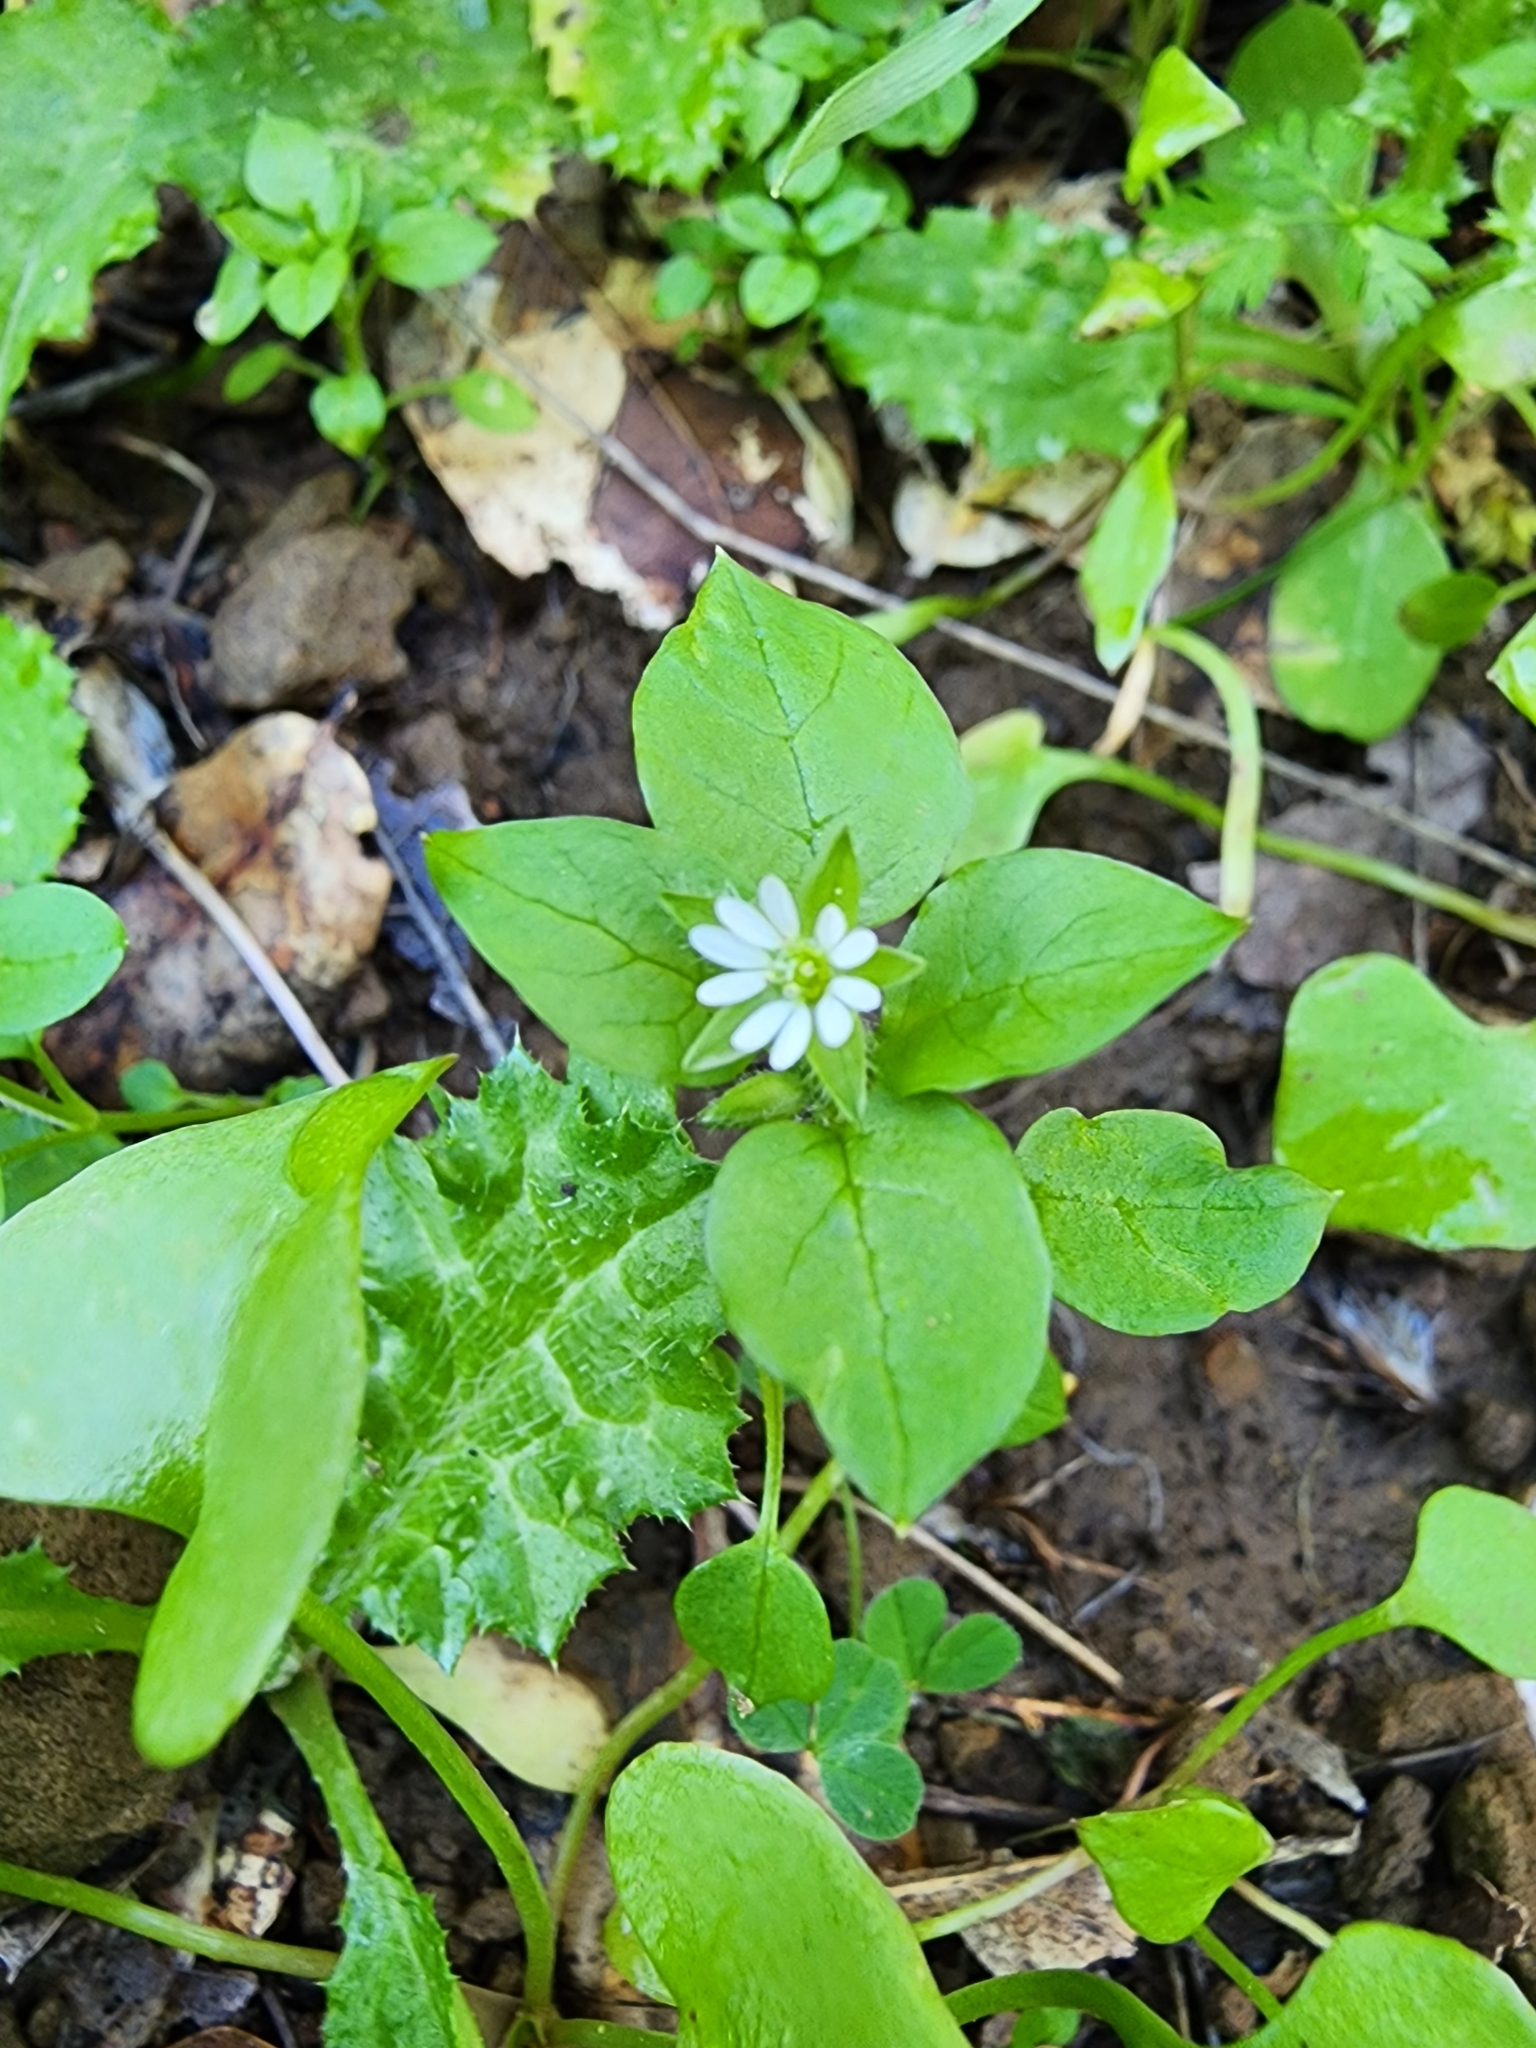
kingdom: Plantae
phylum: Tracheophyta
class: Magnoliopsida
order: Caryophyllales
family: Caryophyllaceae
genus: Stellaria
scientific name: Stellaria media
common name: Common chickweed
